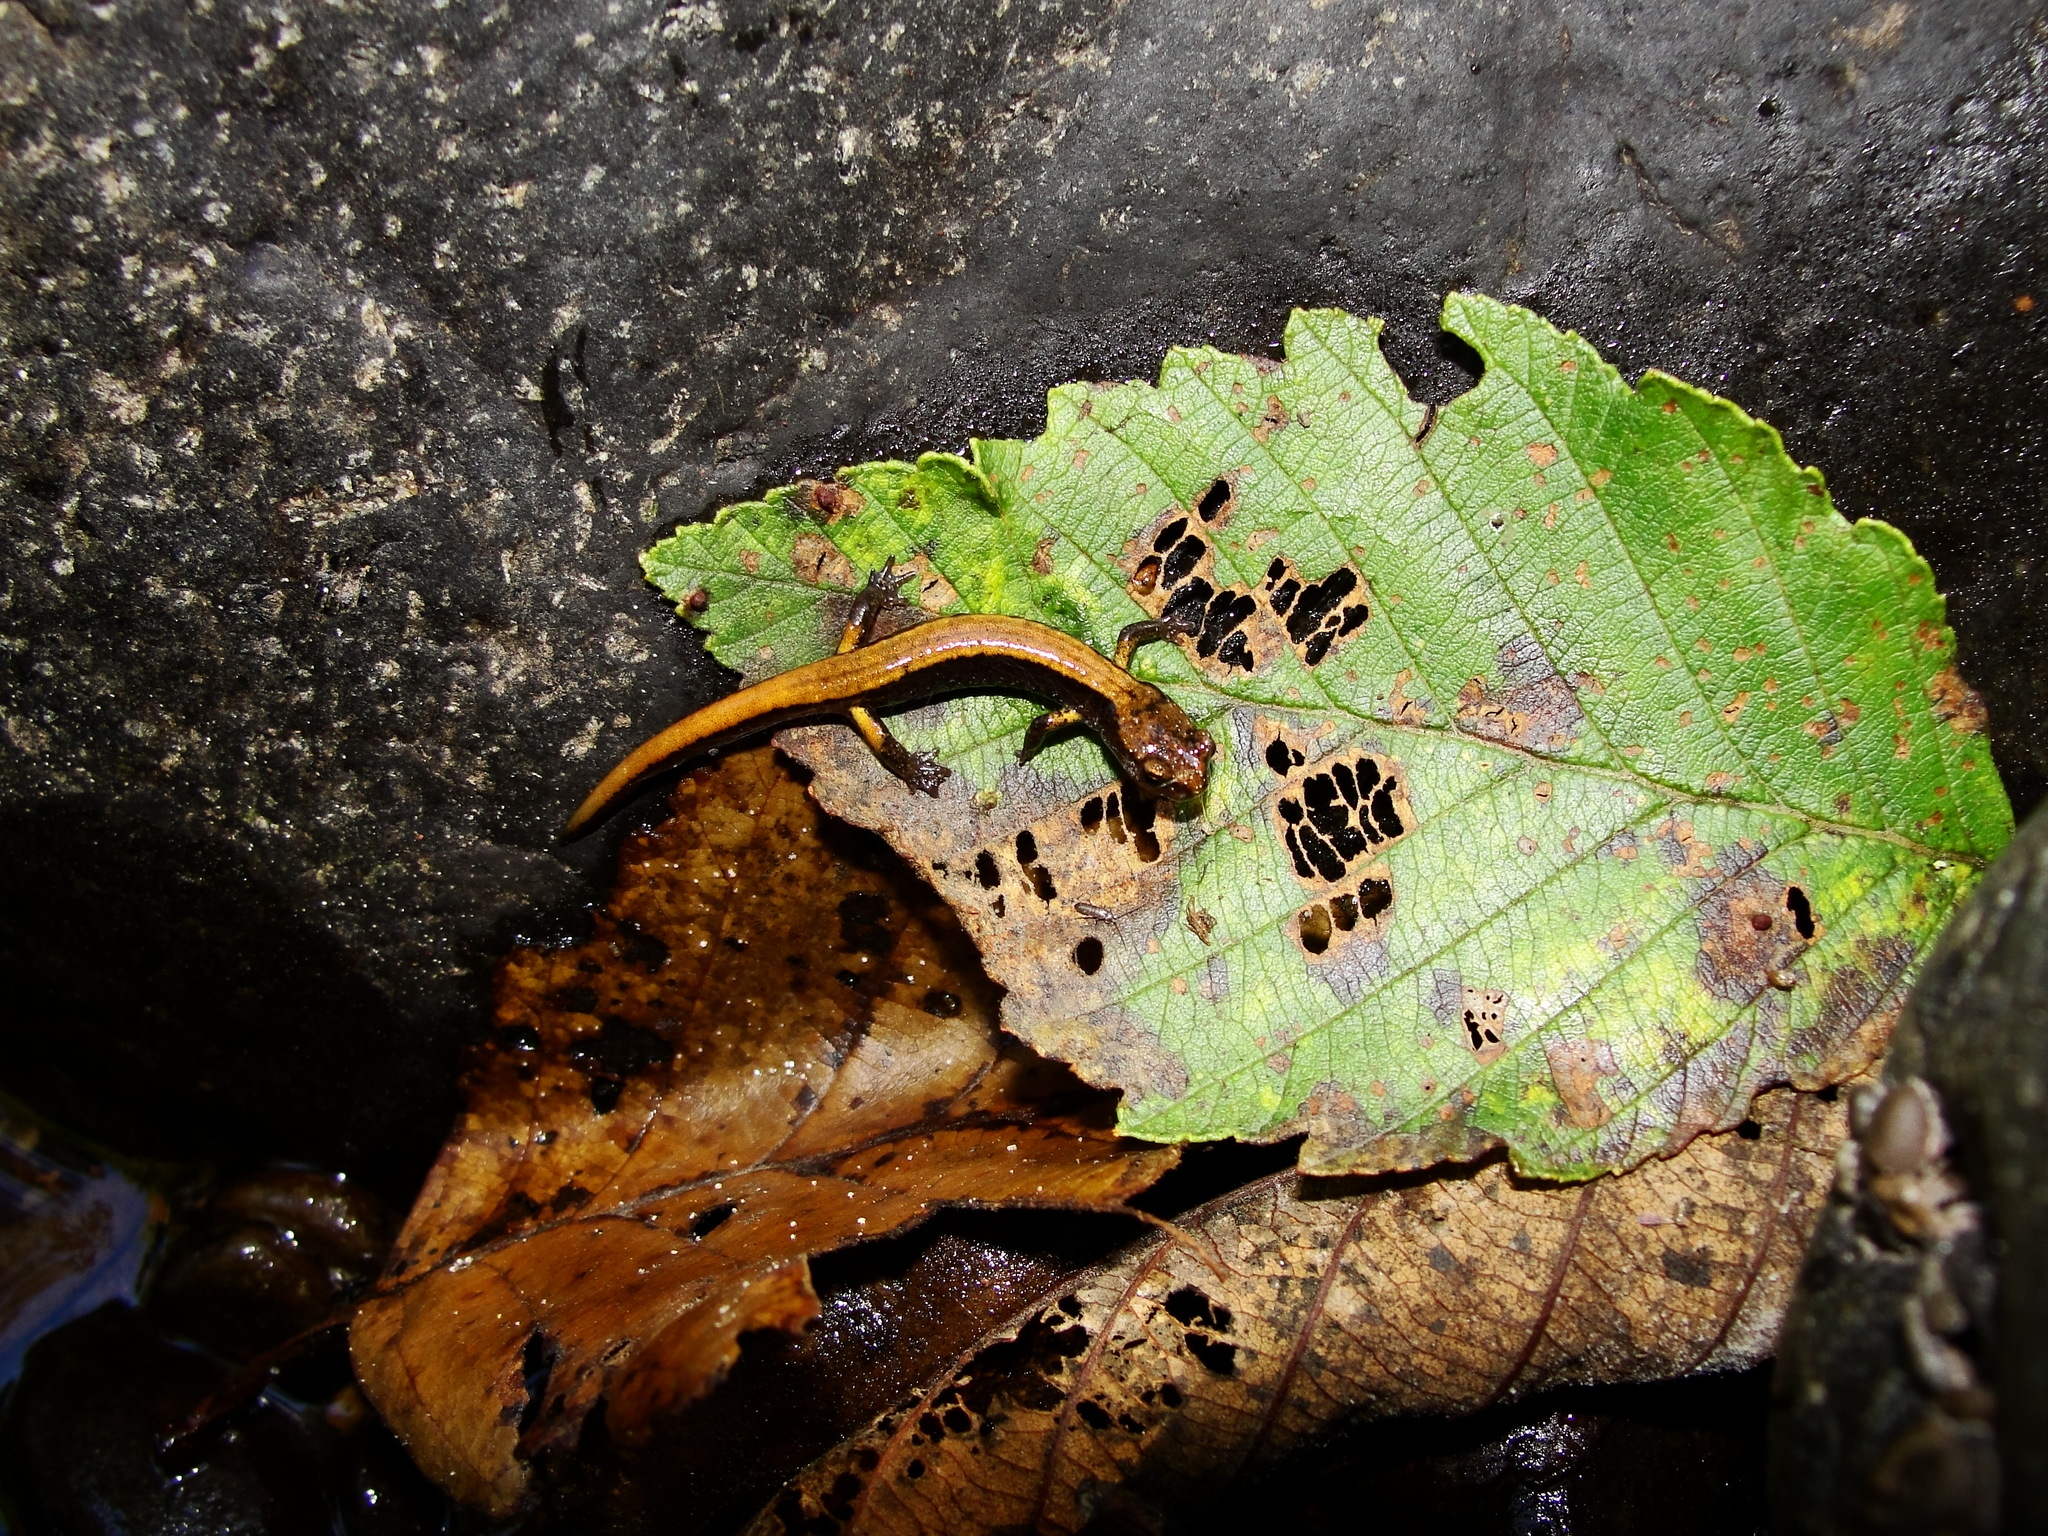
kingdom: Animalia
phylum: Chordata
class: Amphibia
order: Caudata
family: Plethodontidae
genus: Plethodon
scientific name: Plethodon vehiculum
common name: Western red-backed salamander
